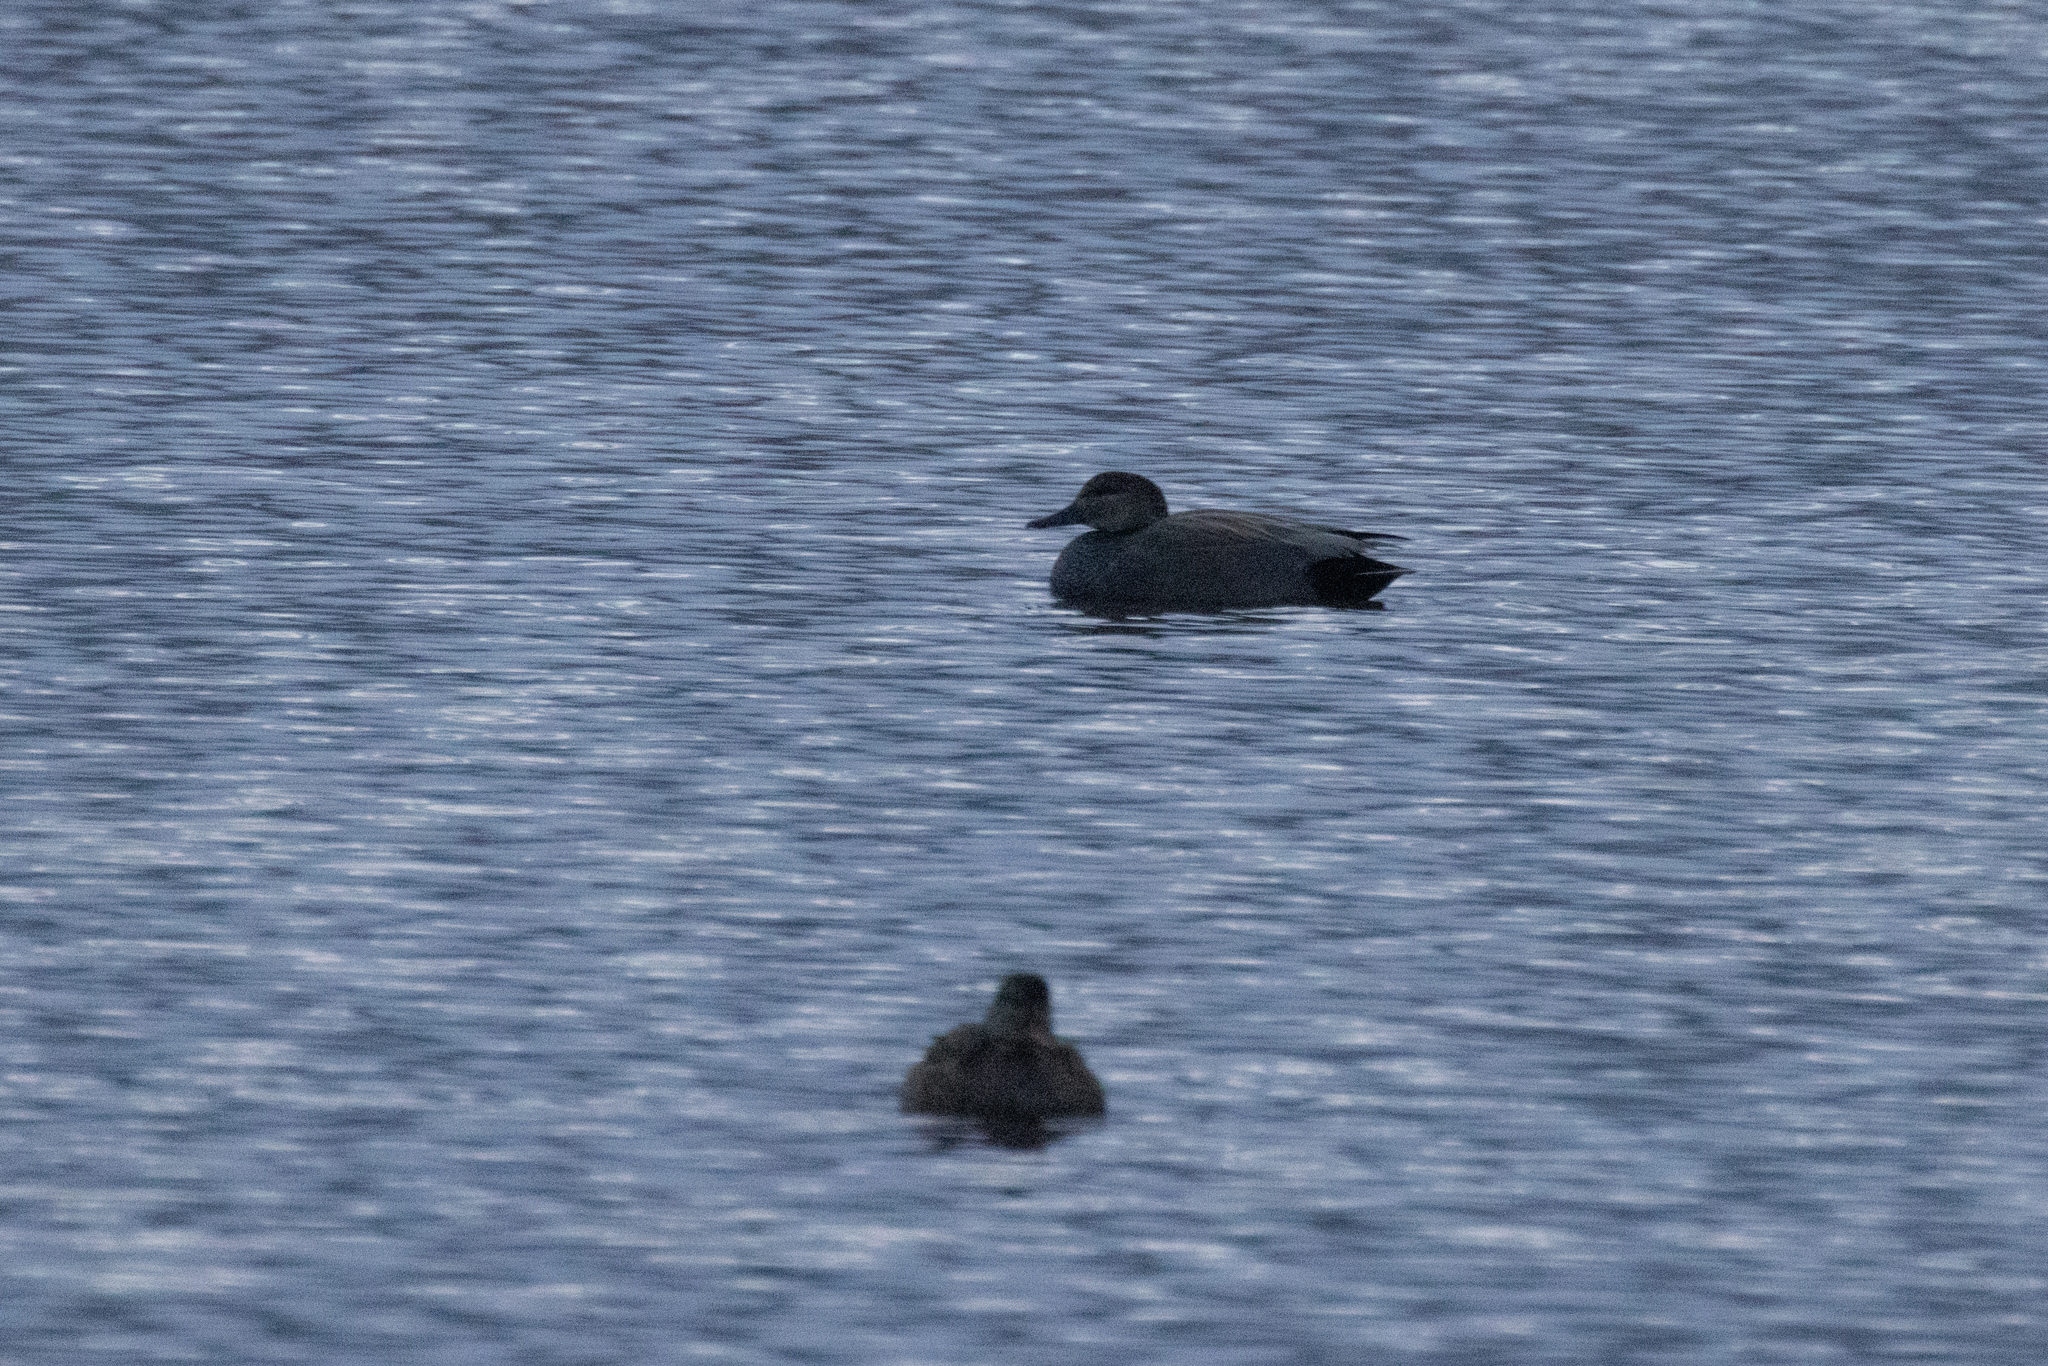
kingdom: Animalia
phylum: Chordata
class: Aves
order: Anseriformes
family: Anatidae
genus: Mareca
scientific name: Mareca strepera
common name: Gadwall
